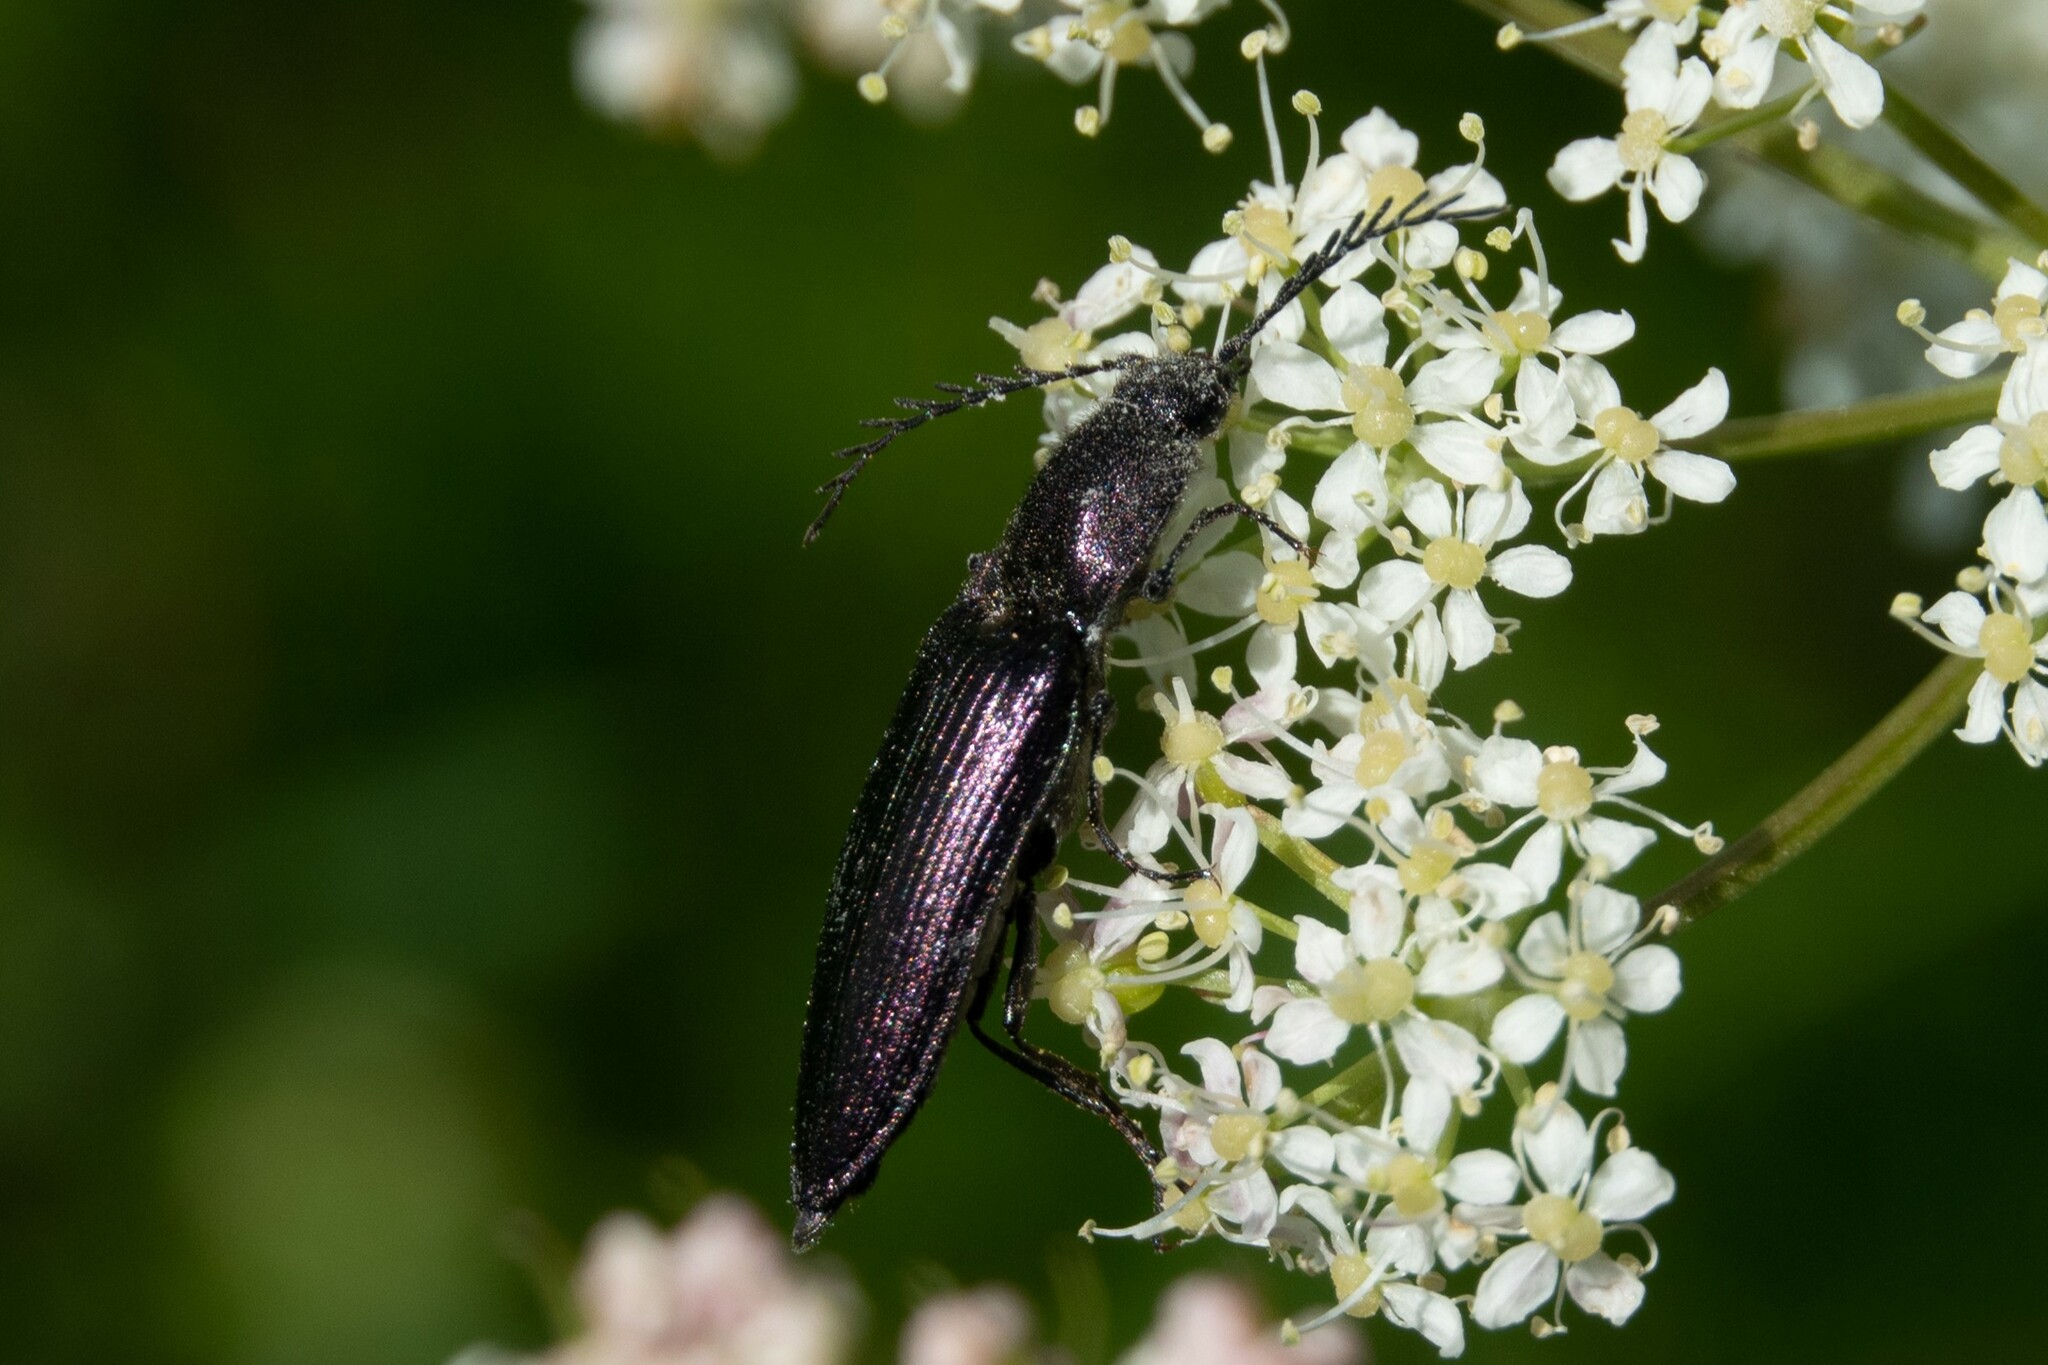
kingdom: Animalia
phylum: Arthropoda
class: Insecta
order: Coleoptera
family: Elateridae
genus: Ctenicera
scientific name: Ctenicera cuprea
